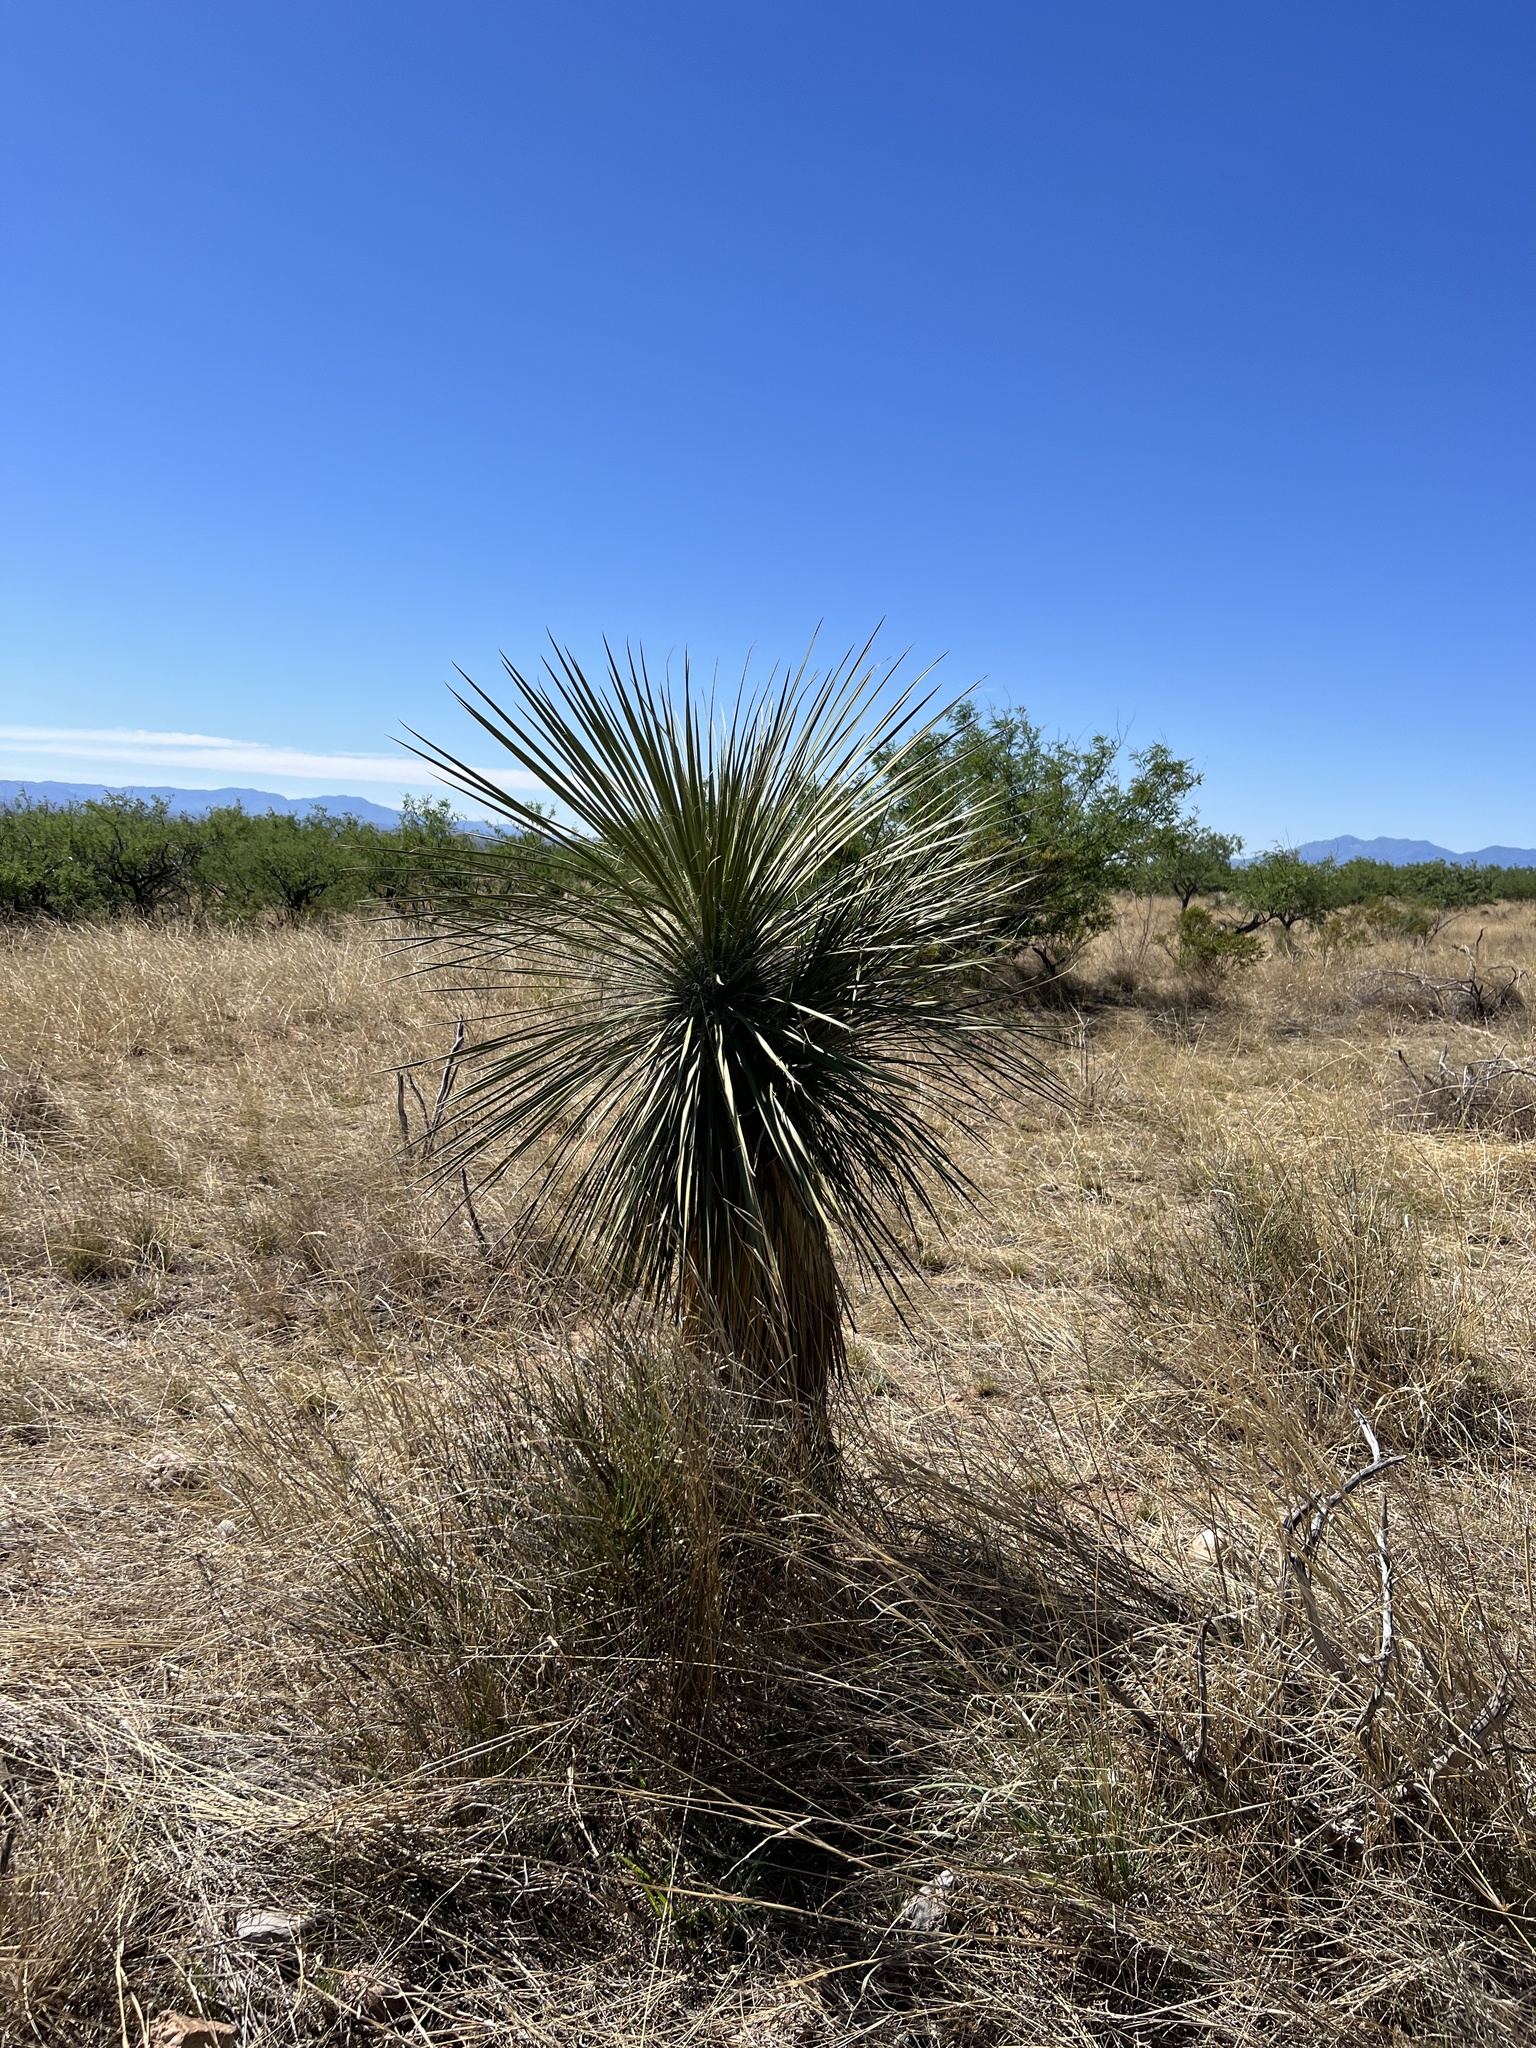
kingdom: Plantae
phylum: Tracheophyta
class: Liliopsida
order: Asparagales
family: Asparagaceae
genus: Yucca
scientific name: Yucca elata
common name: Palmella
